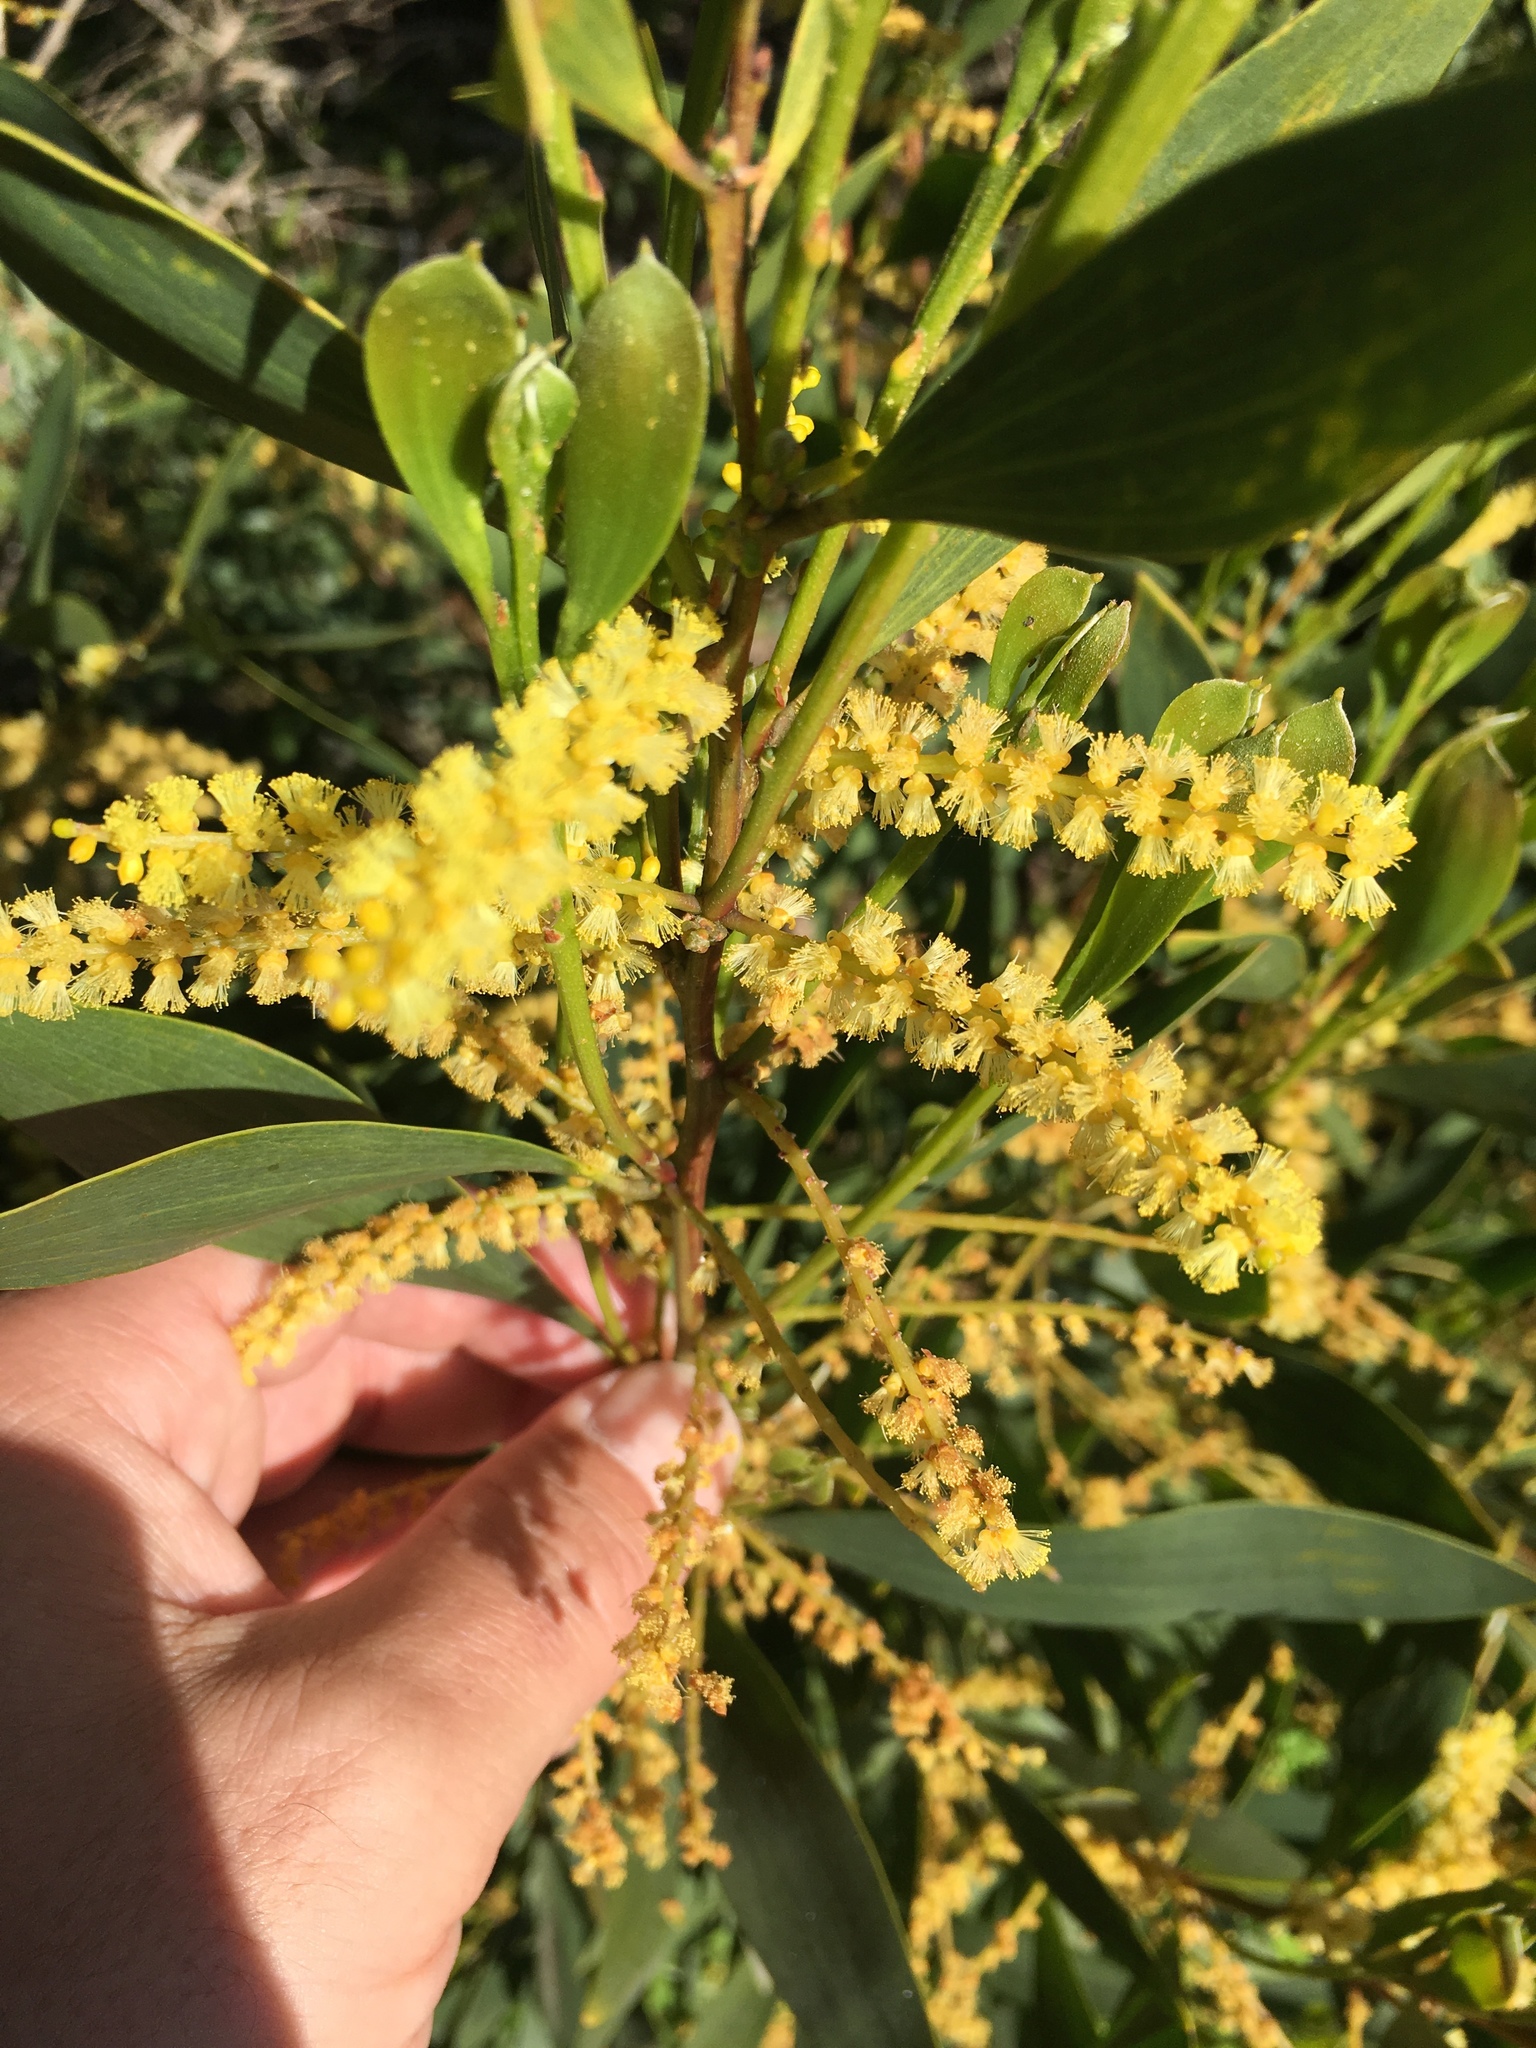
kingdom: Plantae
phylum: Tracheophyta
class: Magnoliopsida
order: Fabales
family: Fabaceae
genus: Acacia
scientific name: Acacia longifolia
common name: Sydney golden wattle
